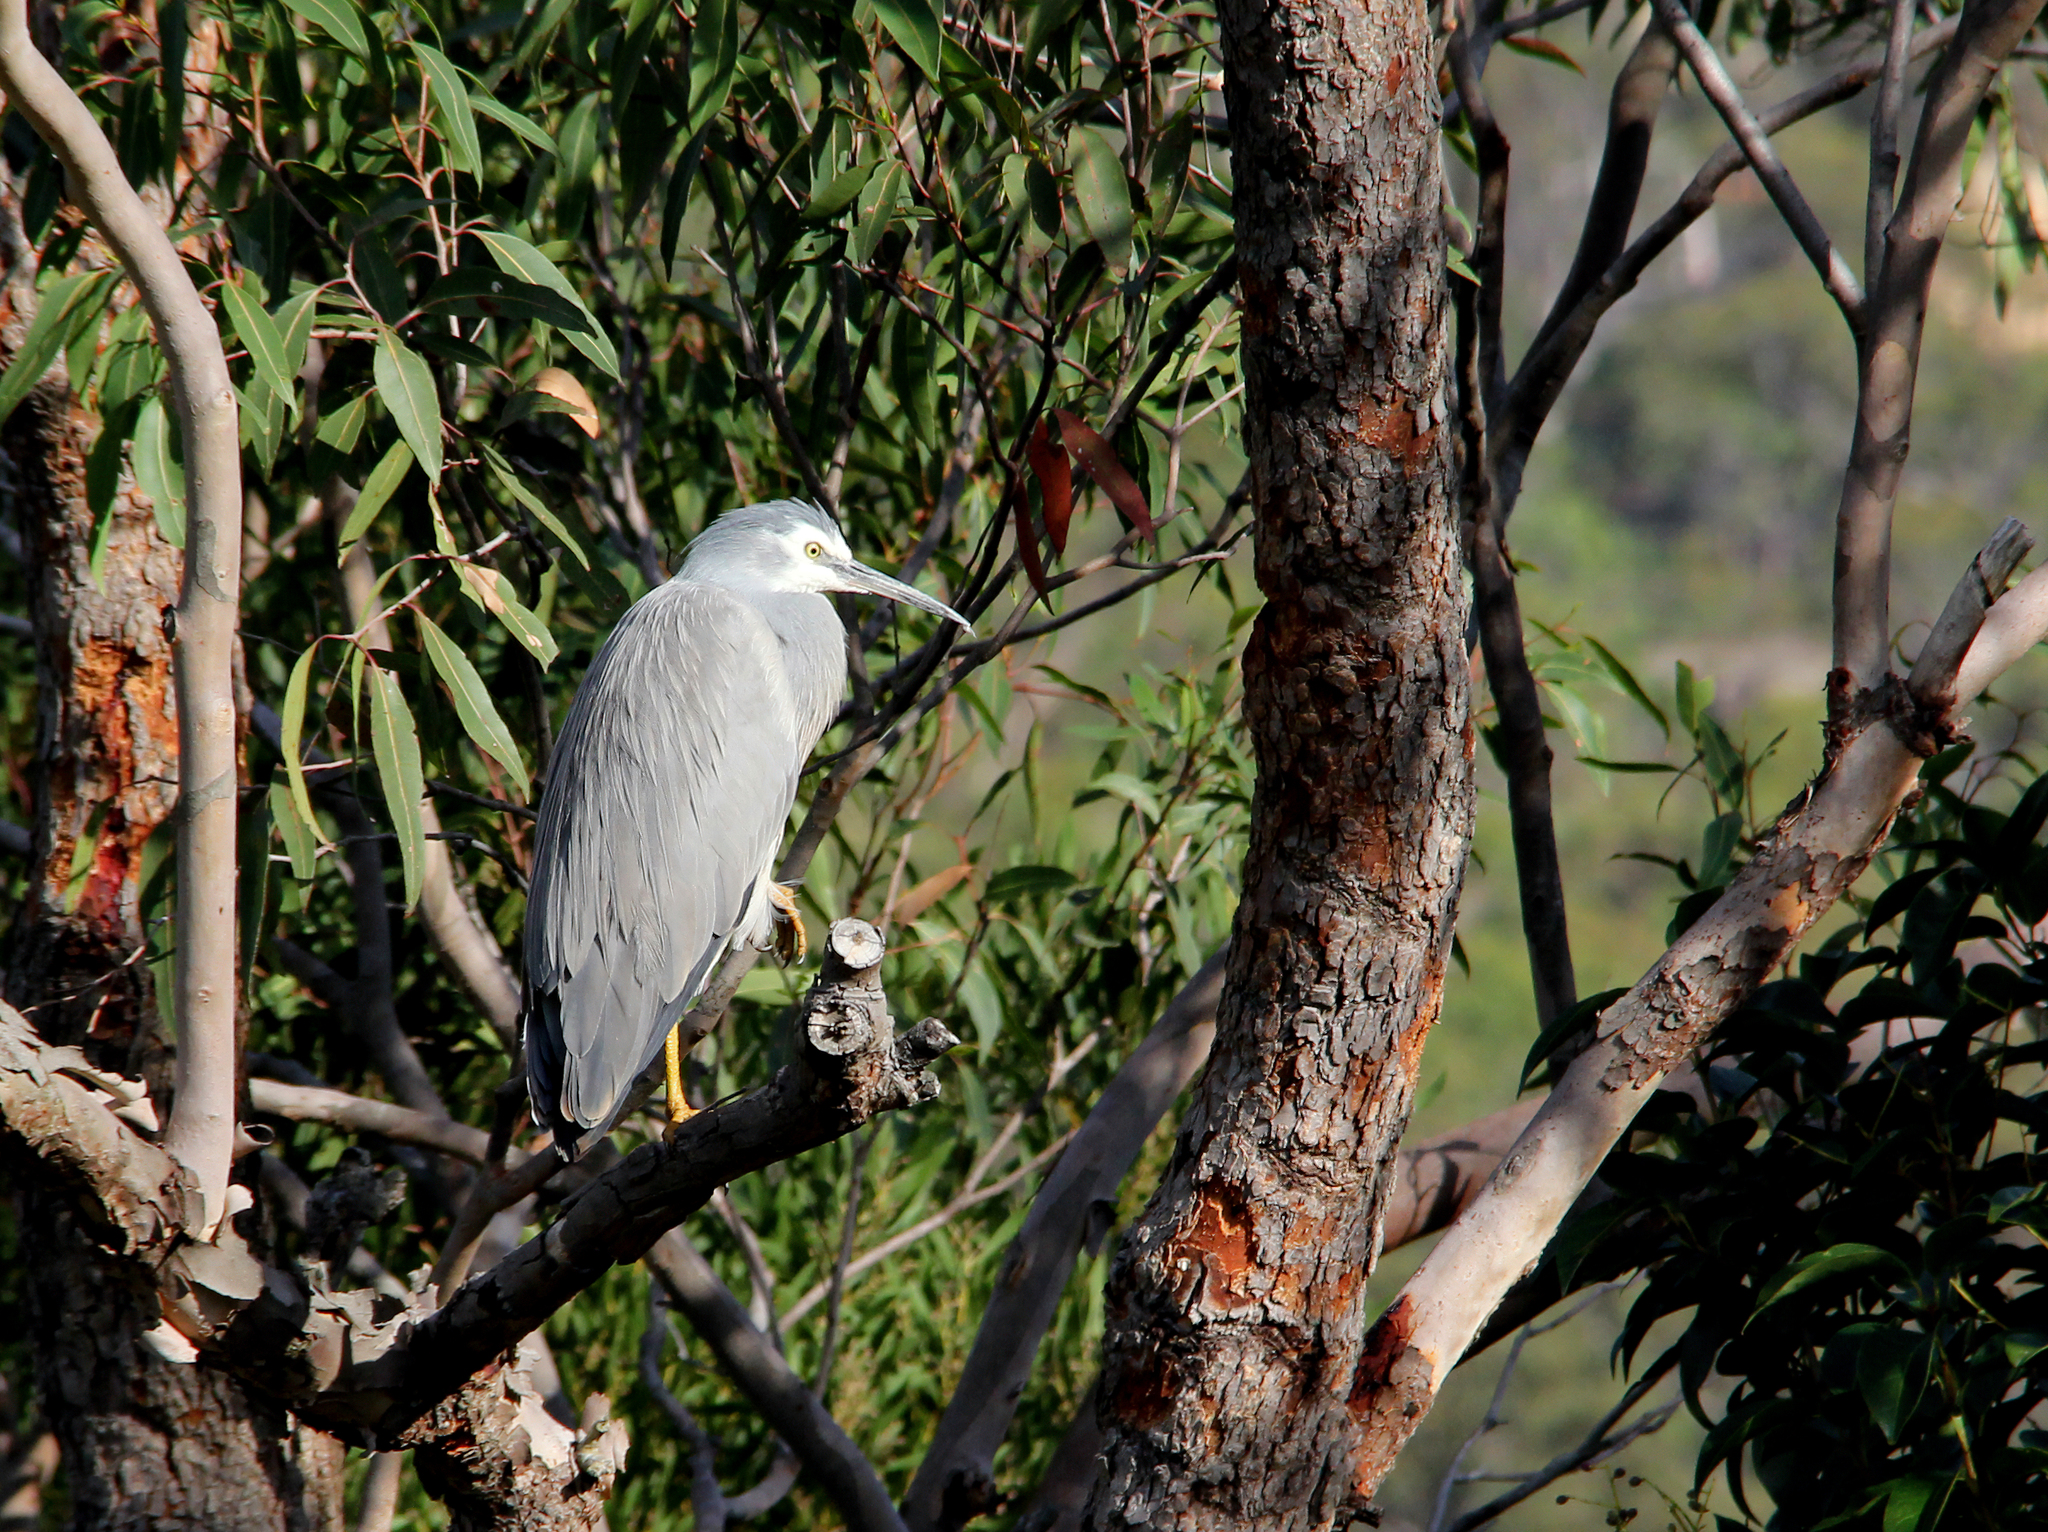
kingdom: Animalia
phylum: Chordata
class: Aves
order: Pelecaniformes
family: Ardeidae
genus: Egretta
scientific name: Egretta novaehollandiae
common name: White-faced heron
